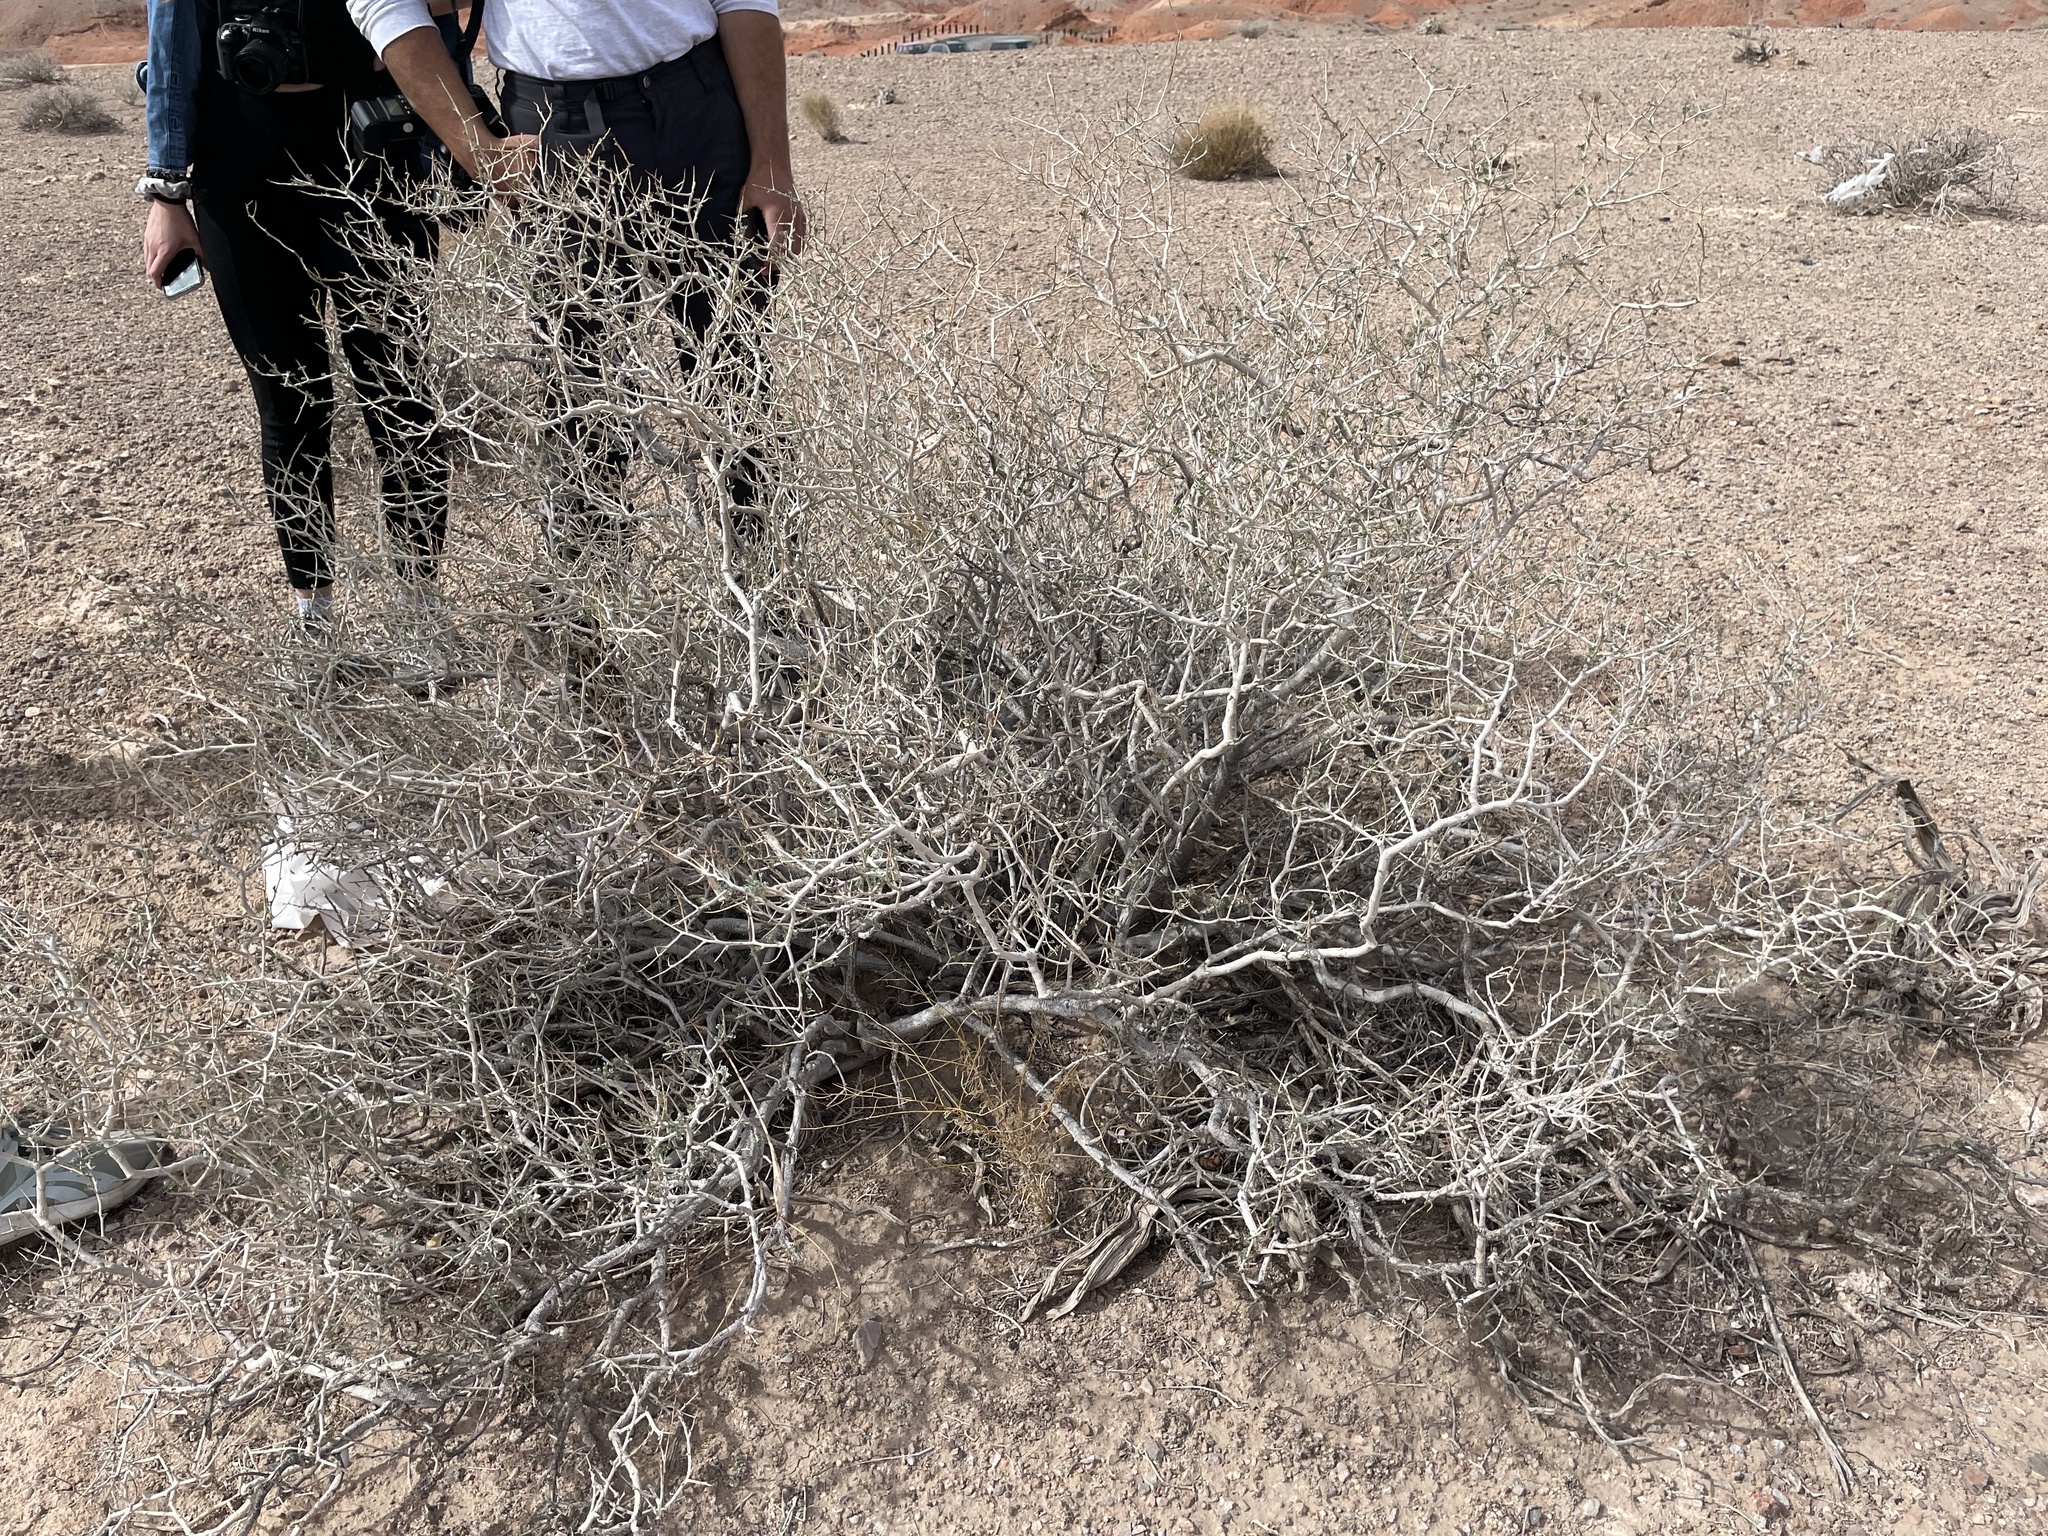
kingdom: Plantae
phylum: Tracheophyta
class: Magnoliopsida
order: Fabales
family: Fabaceae
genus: Psorothamnus
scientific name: Psorothamnus arborescens
